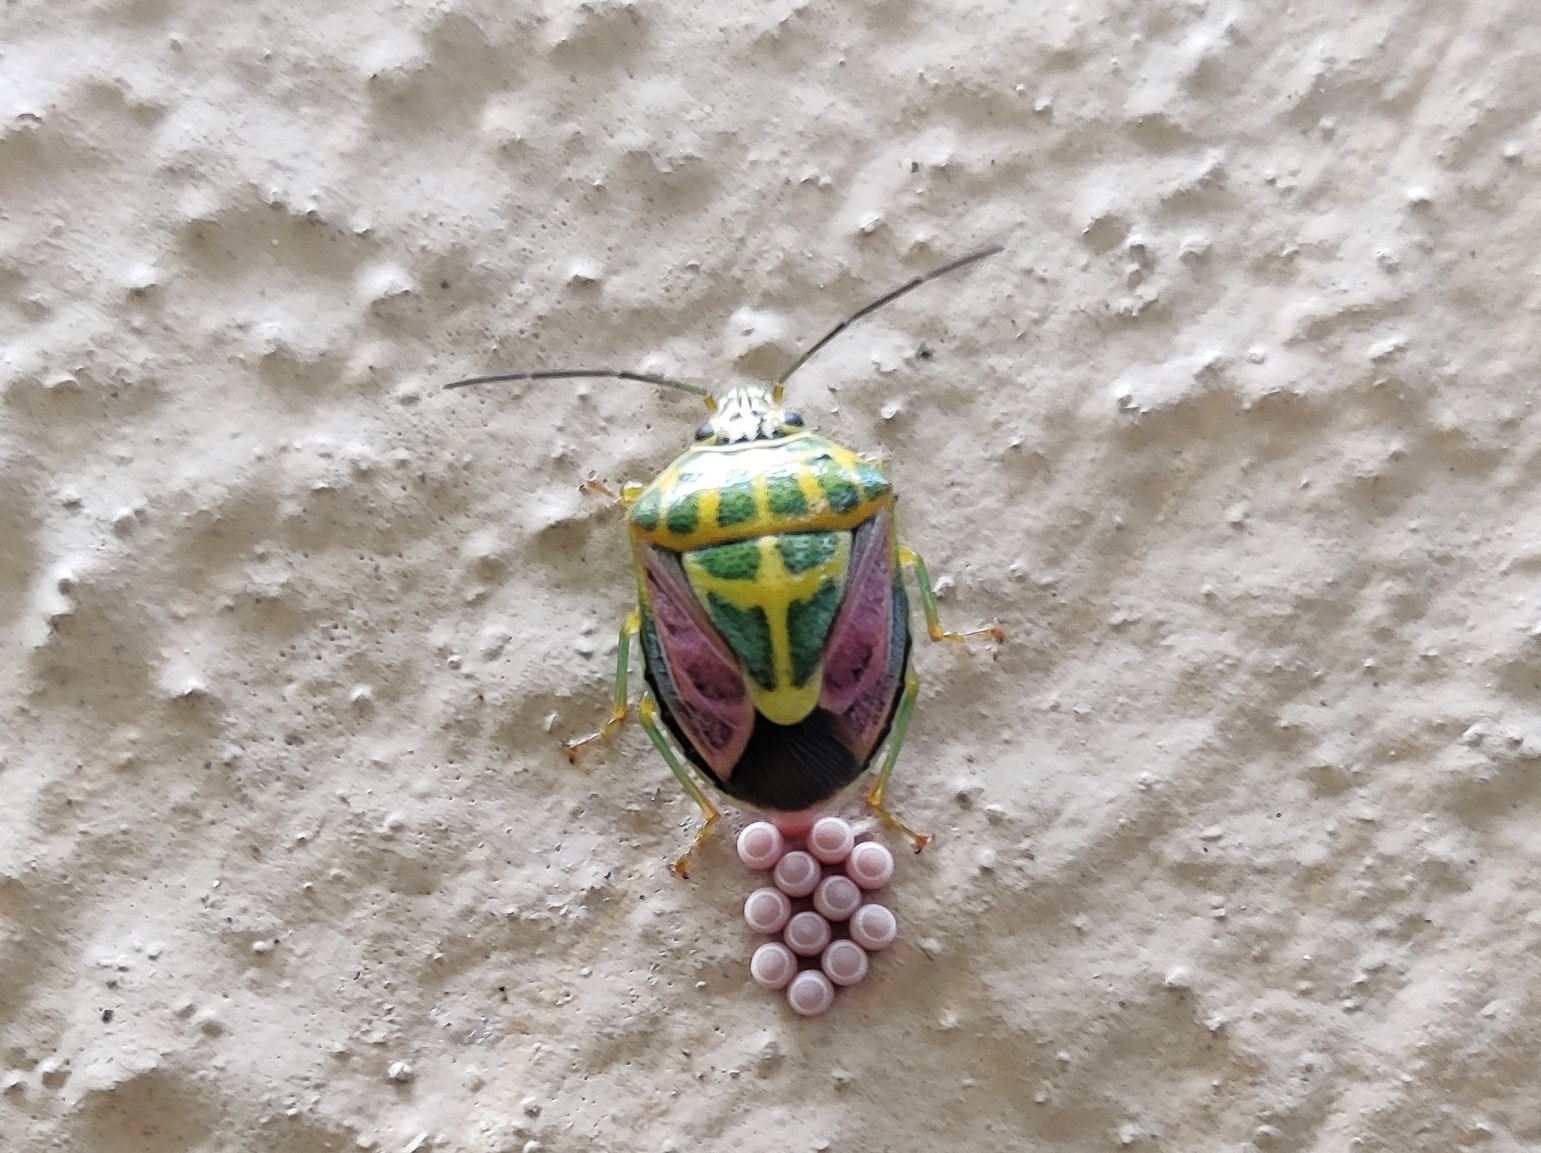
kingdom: Animalia
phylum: Arthropoda
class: Insecta
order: Hemiptera
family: Pentatomidae
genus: Antestiopsis
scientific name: Antestiopsis cruciata
